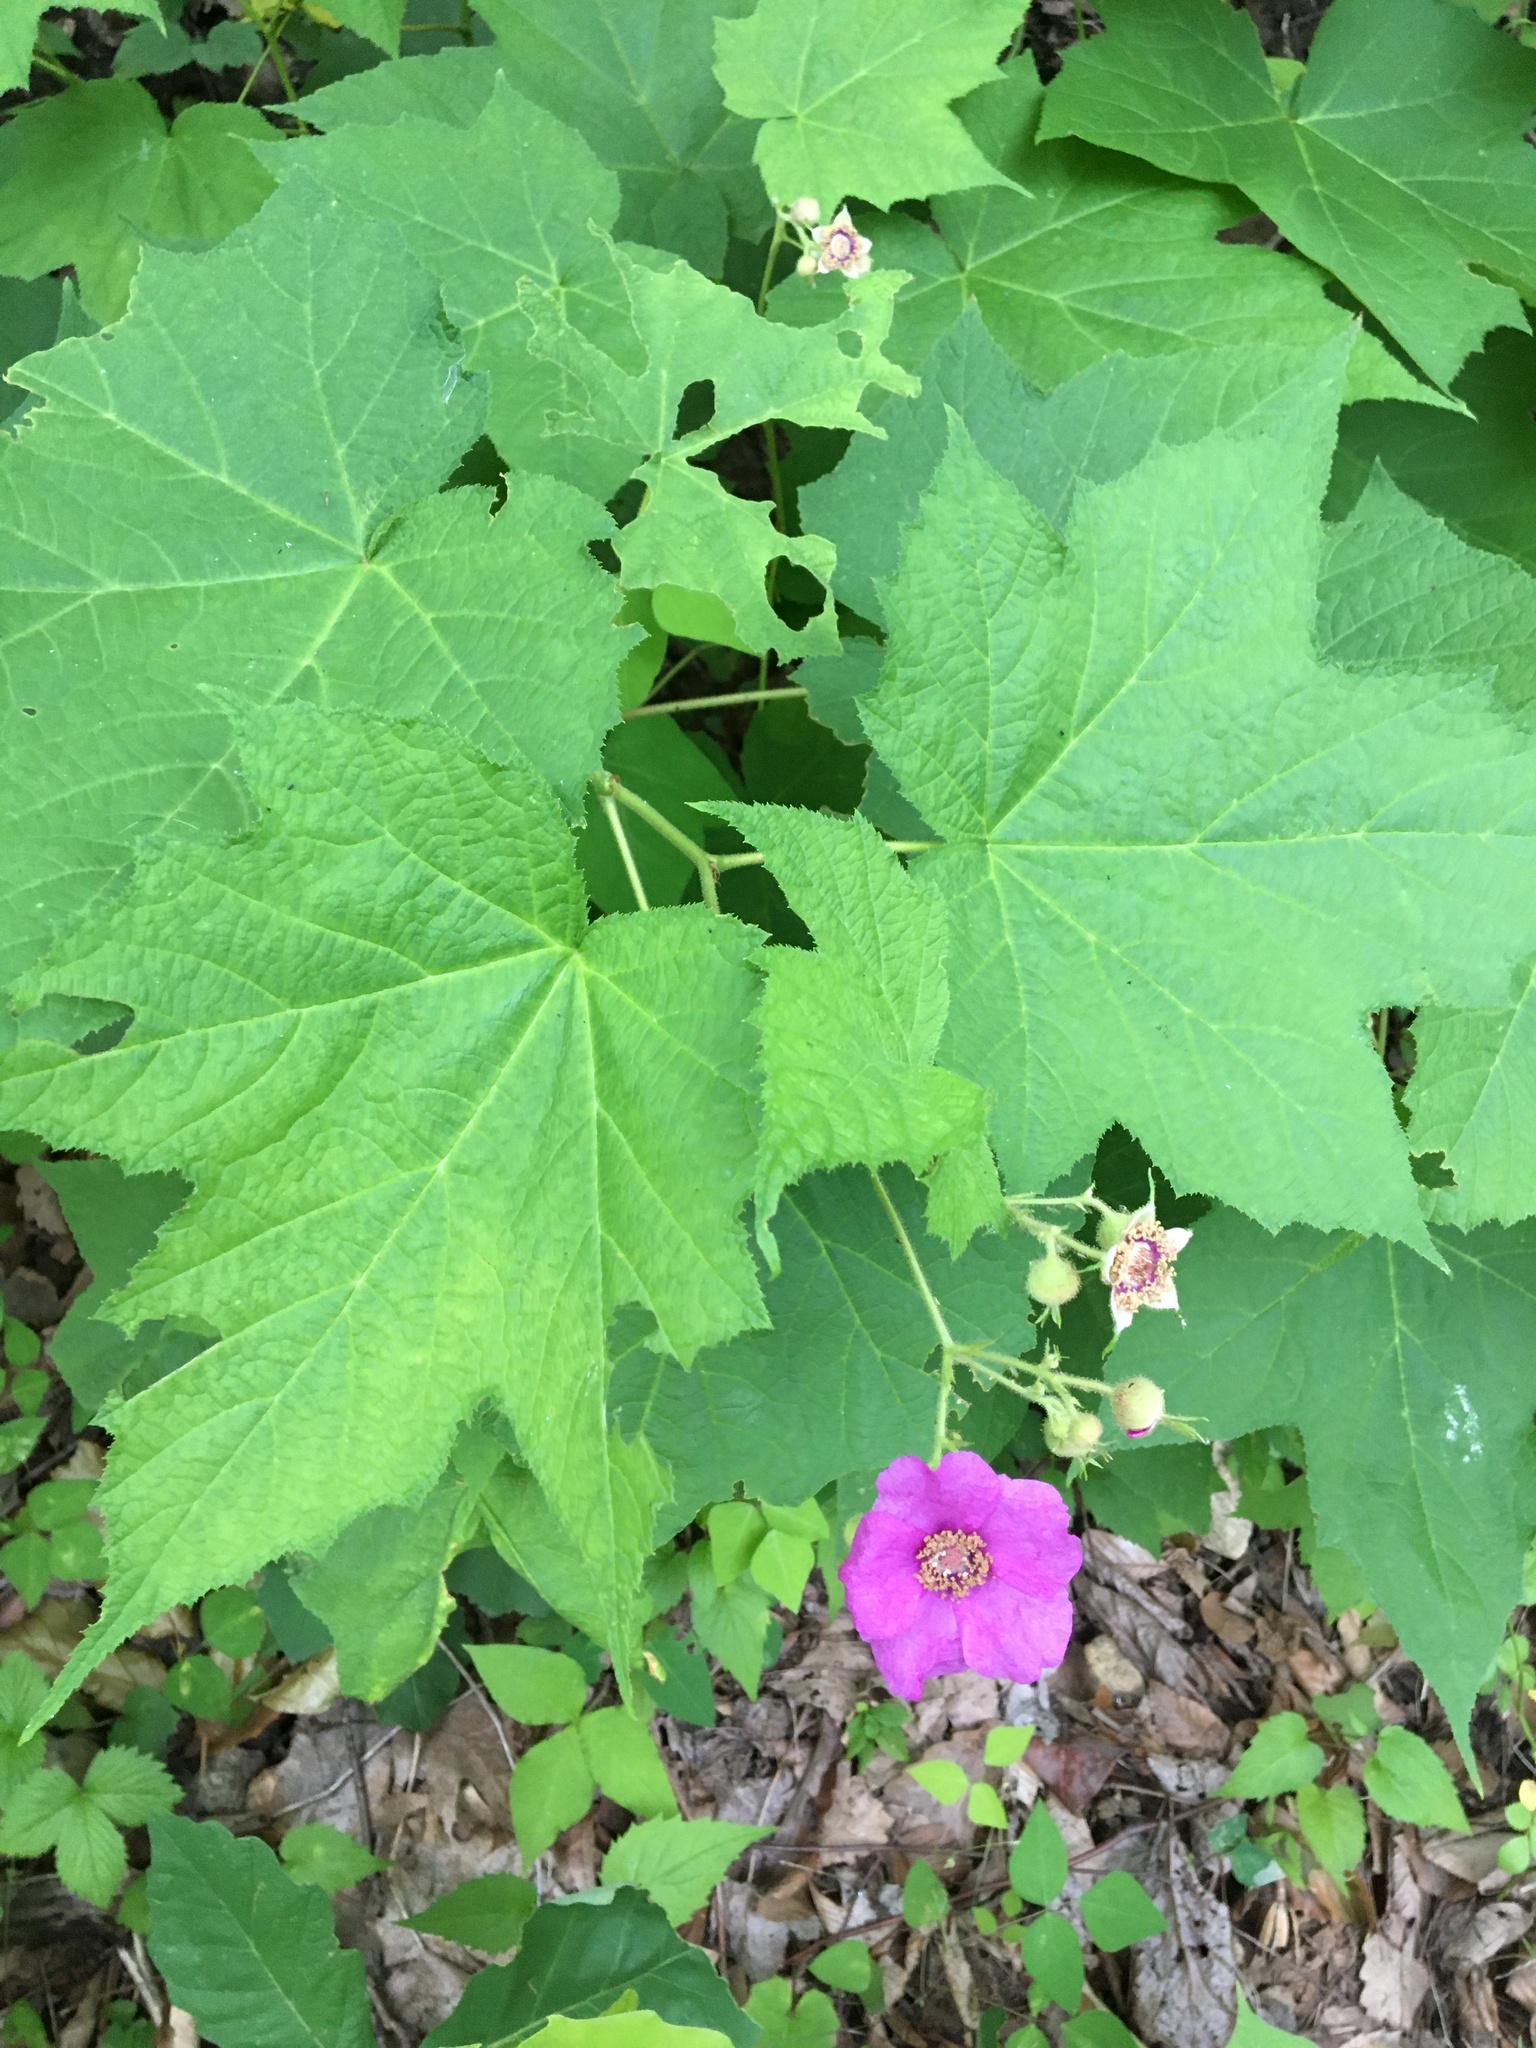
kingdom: Plantae
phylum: Tracheophyta
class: Magnoliopsida
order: Rosales
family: Rosaceae
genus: Rubus
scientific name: Rubus odoratus
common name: Purple-flowered raspberry
